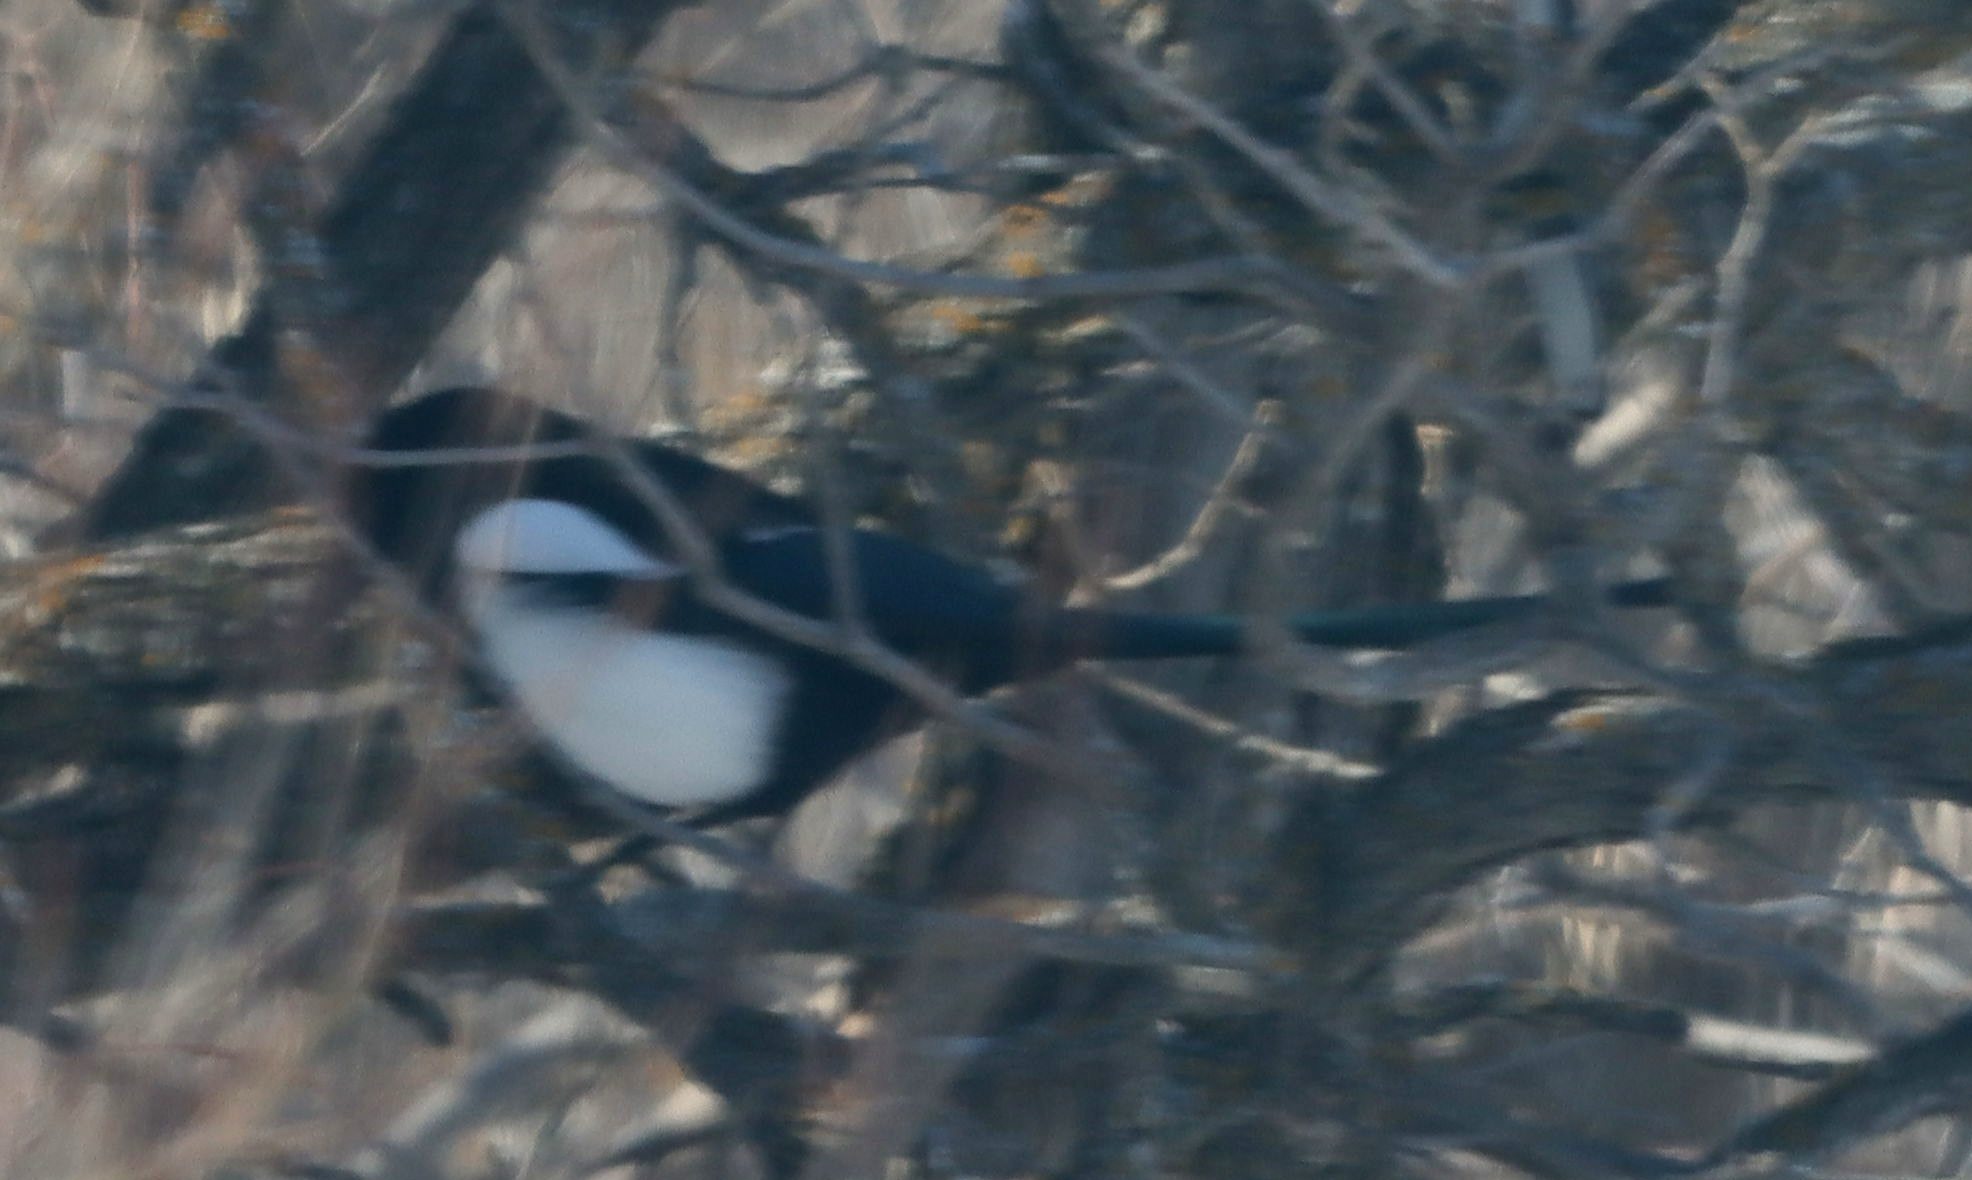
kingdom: Animalia
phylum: Chordata
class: Aves
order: Passeriformes
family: Corvidae
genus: Pica
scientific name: Pica hudsonia
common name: Black-billed magpie
